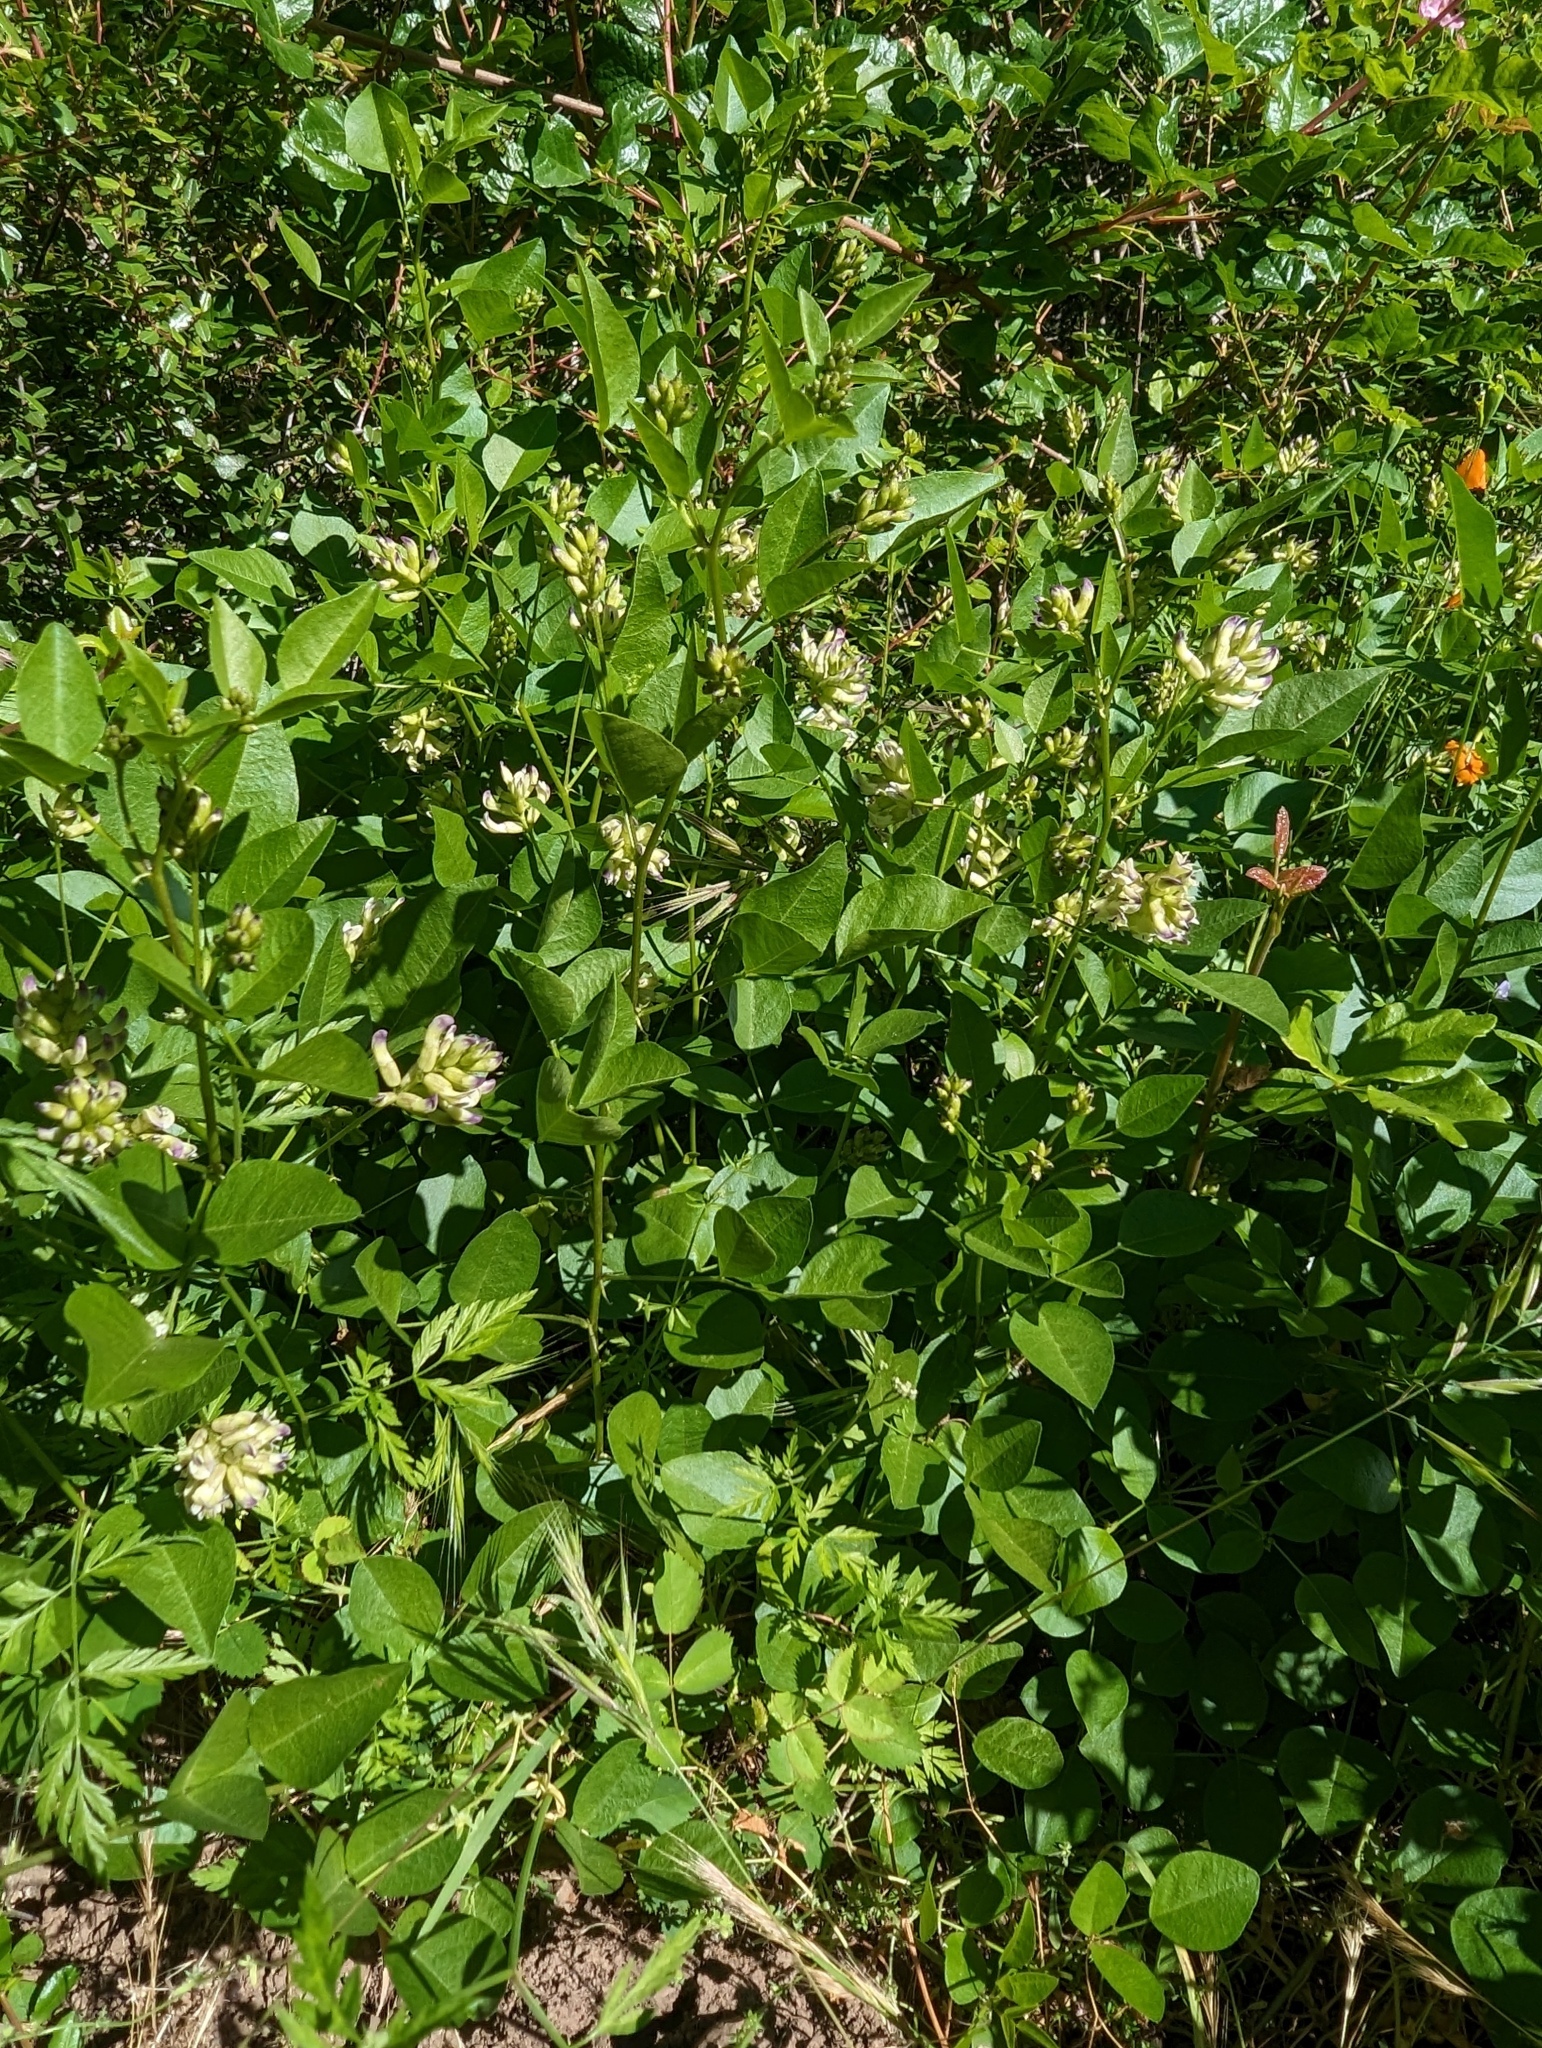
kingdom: Plantae
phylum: Tracheophyta
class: Magnoliopsida
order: Fabales
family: Fabaceae
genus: Rupertia
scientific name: Rupertia physodes
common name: California-tea
